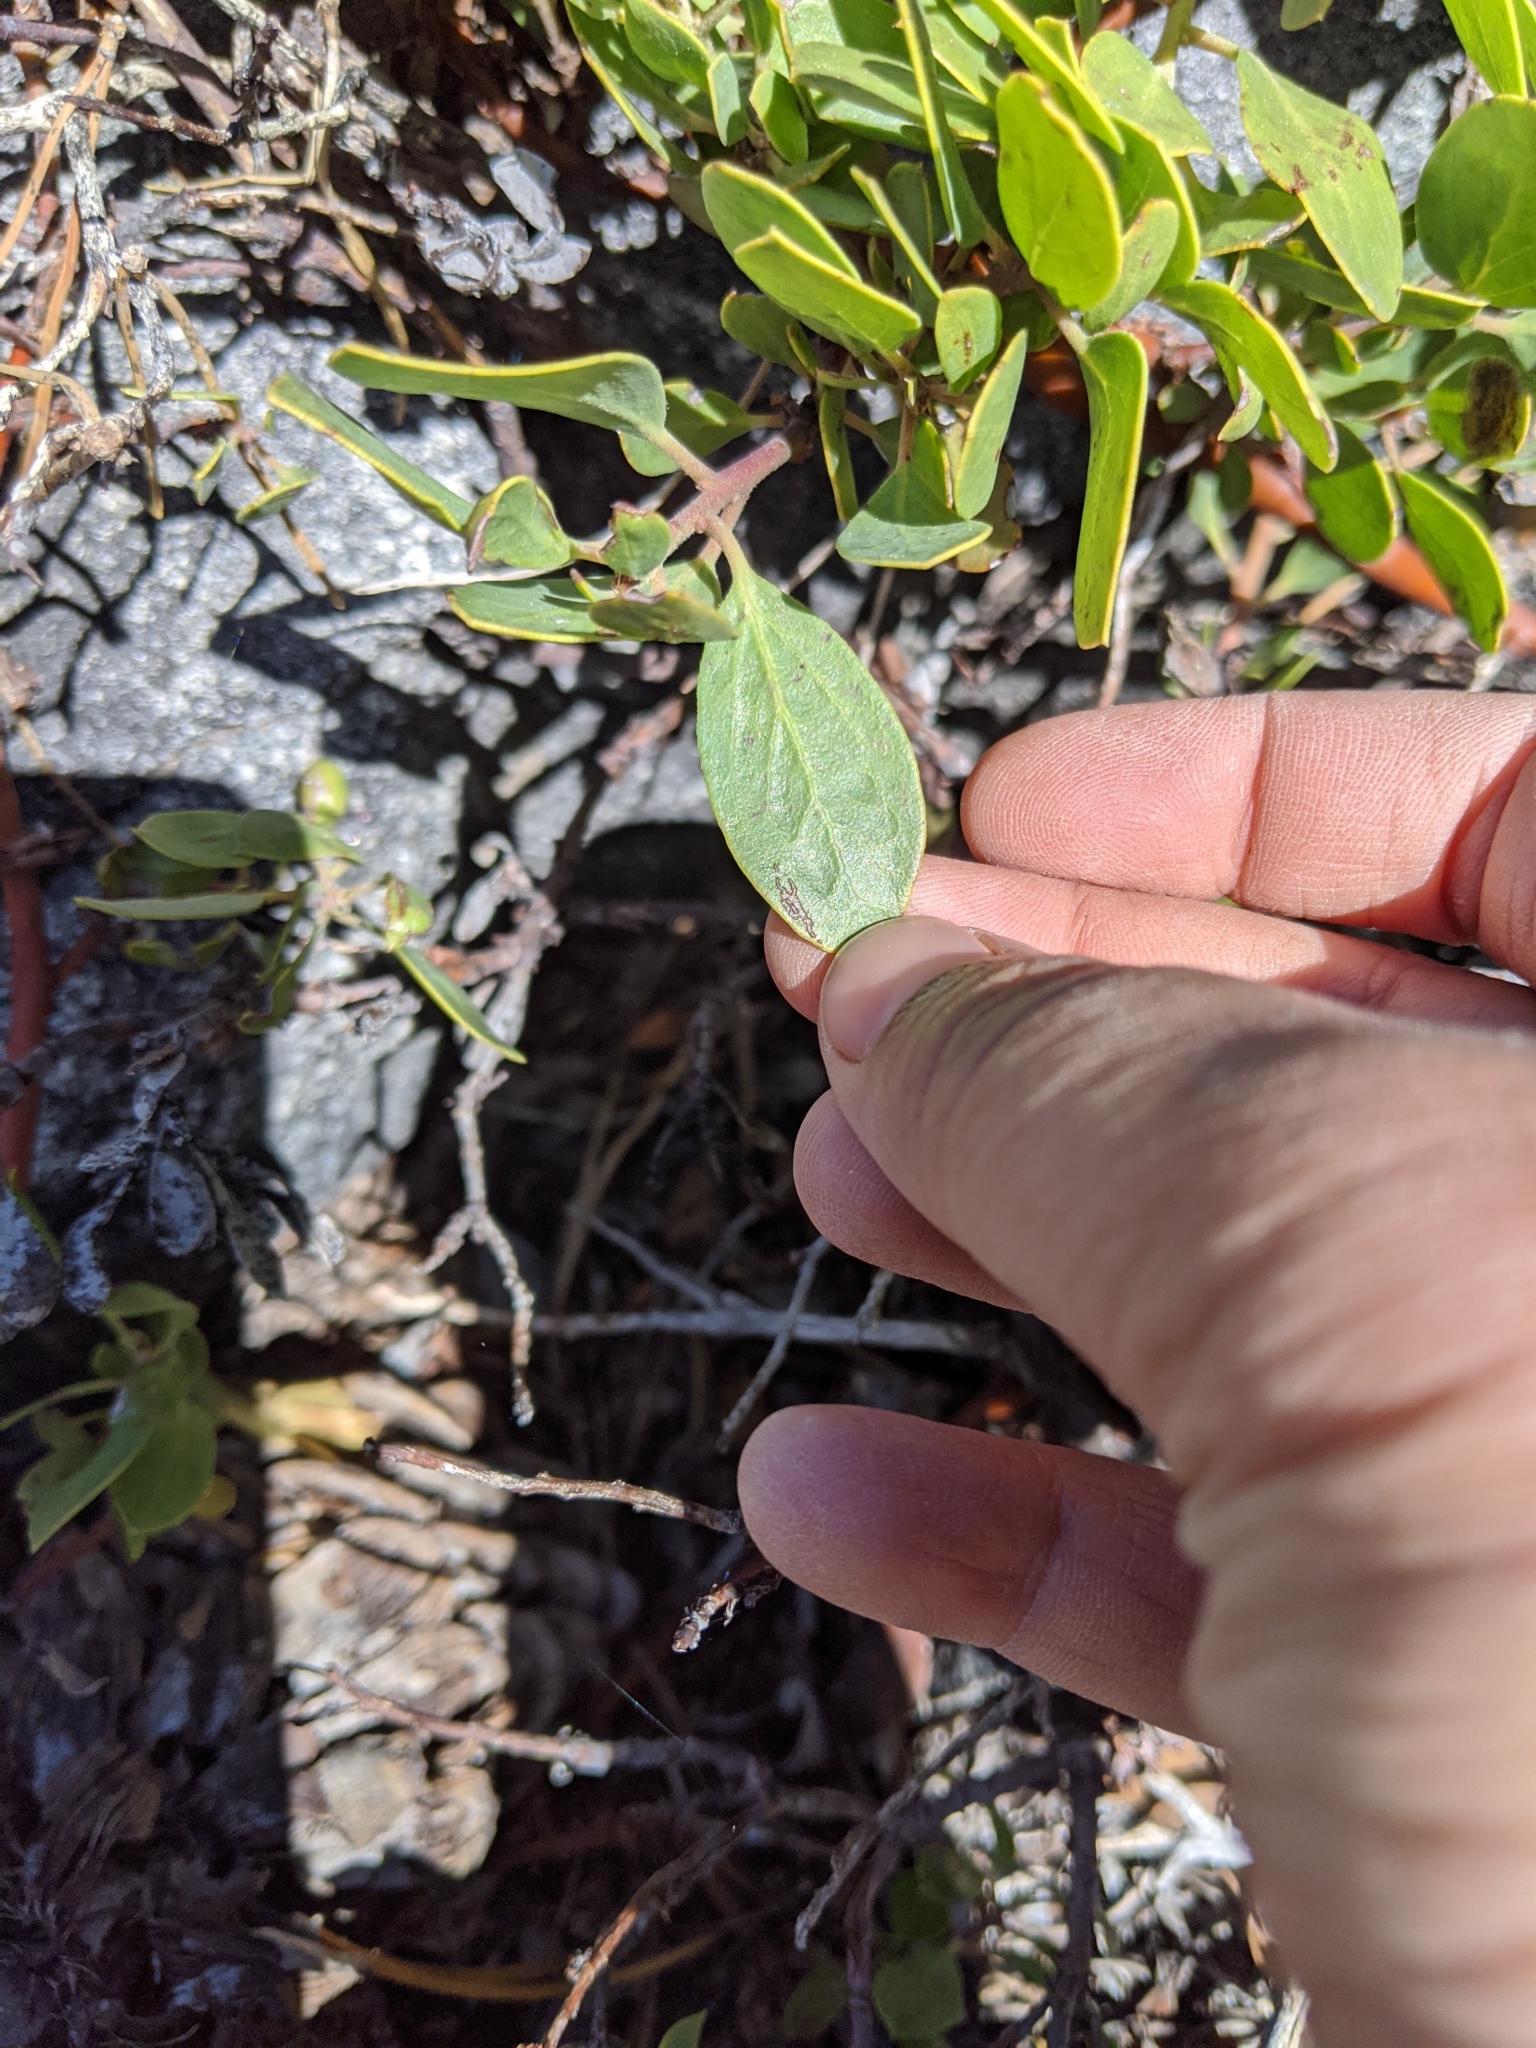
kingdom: Plantae
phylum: Tracheophyta
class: Magnoliopsida
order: Ericales
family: Ericaceae
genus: Arctostaphylos
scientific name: Arctostaphylos nevadensis
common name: Pinemat manzanita
